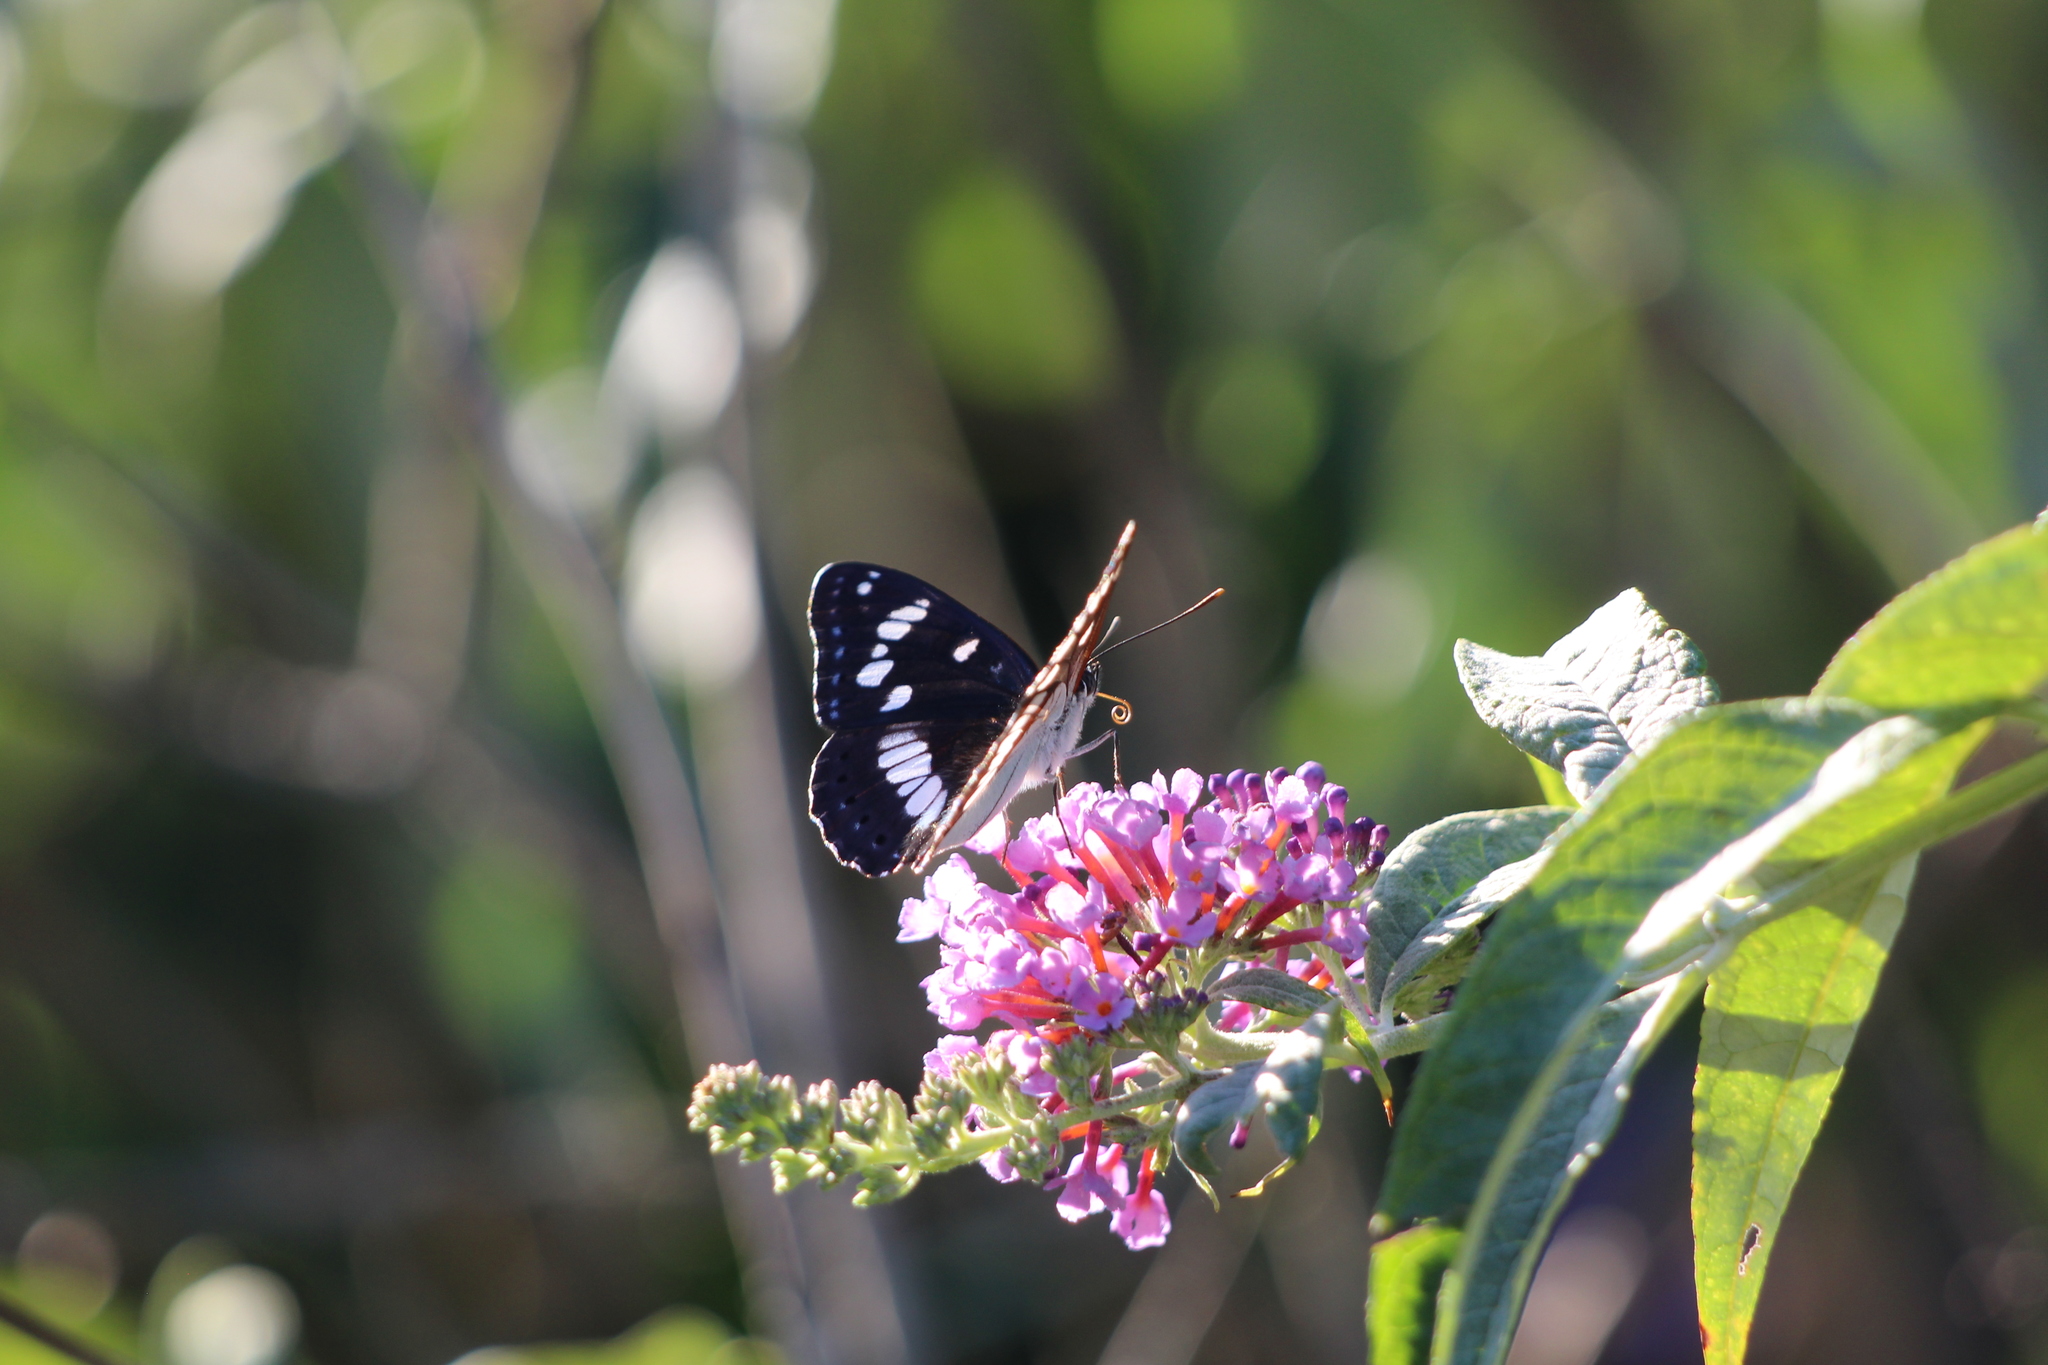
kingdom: Animalia
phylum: Arthropoda
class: Insecta
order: Lepidoptera
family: Nymphalidae
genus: Limenitis
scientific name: Limenitis reducta
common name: Southern white admiral
